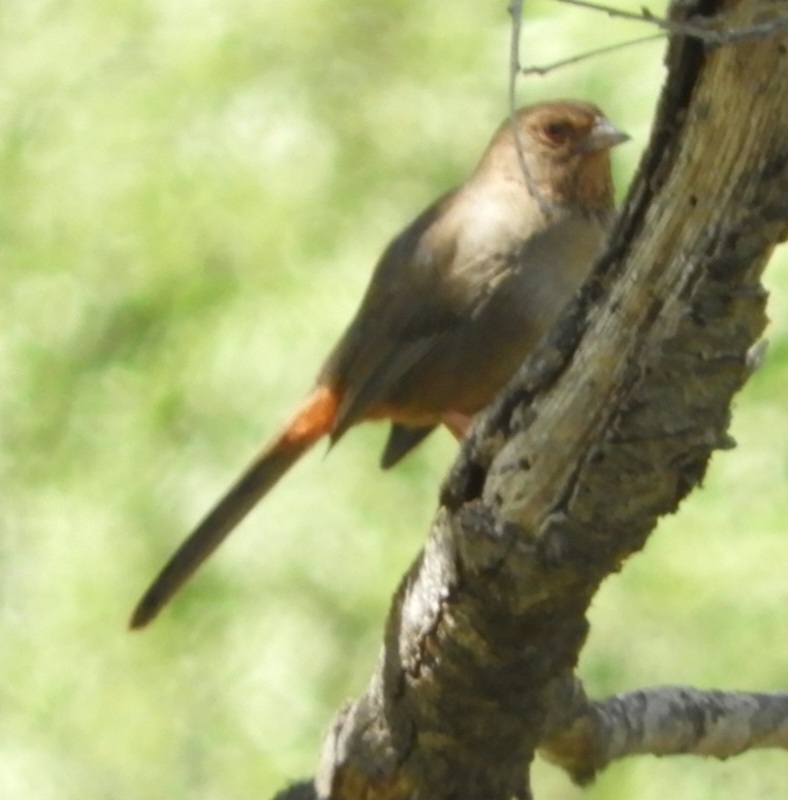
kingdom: Animalia
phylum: Chordata
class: Aves
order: Passeriformes
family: Passerellidae
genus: Melozone
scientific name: Melozone crissalis
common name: California towhee
